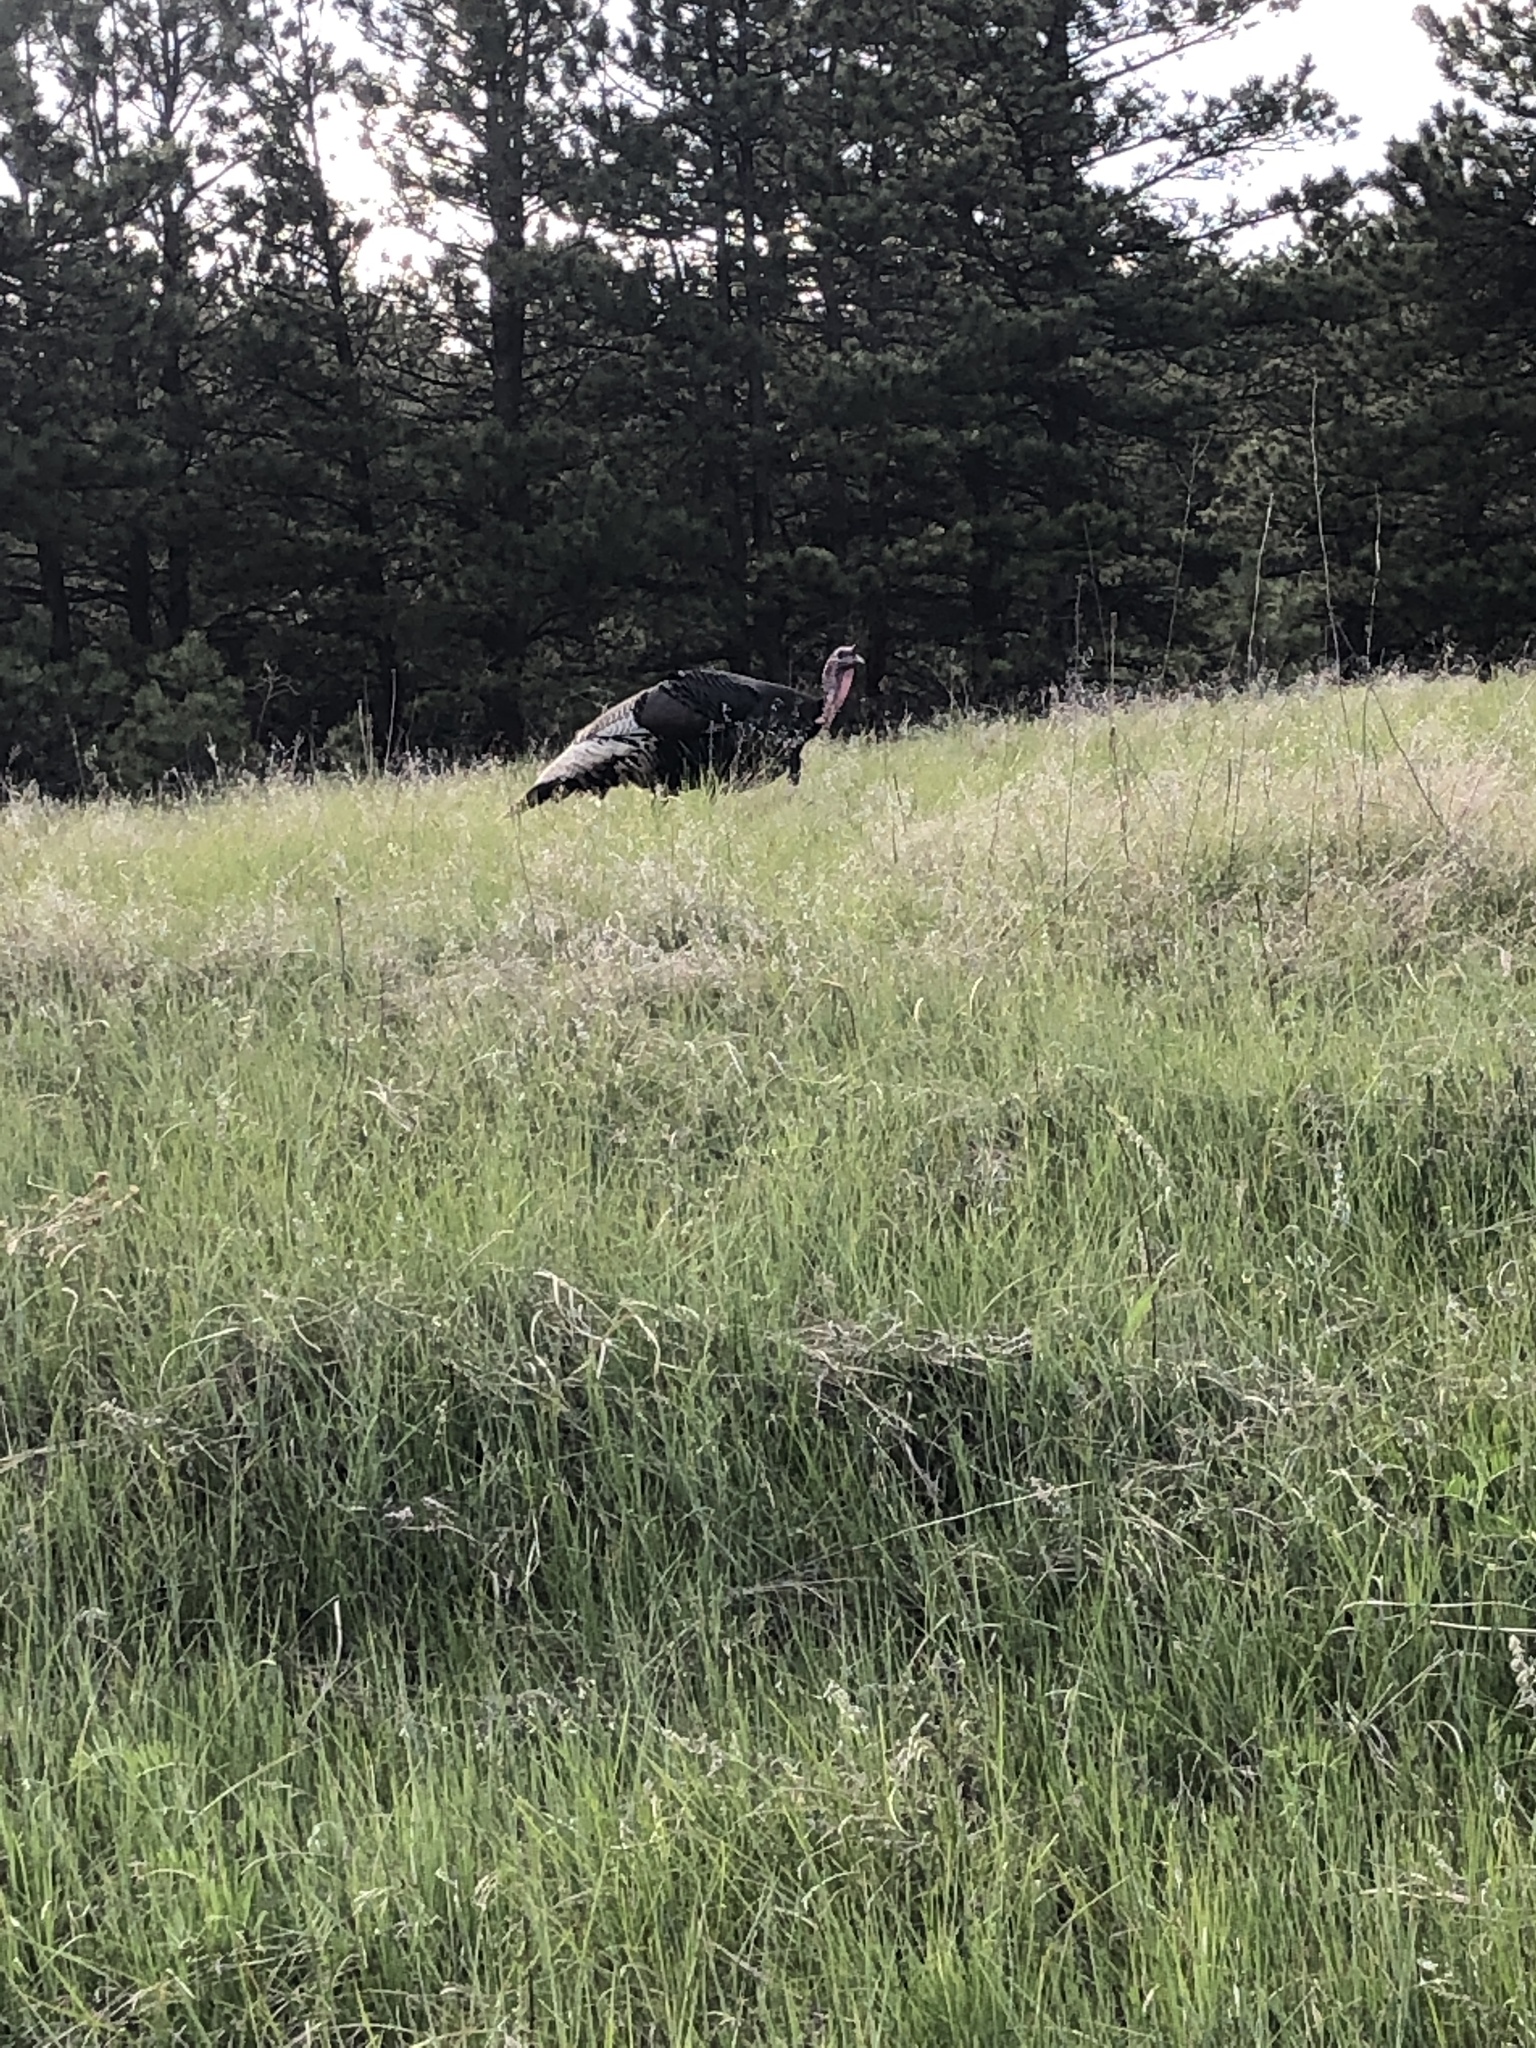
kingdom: Animalia
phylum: Chordata
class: Aves
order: Galliformes
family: Phasianidae
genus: Meleagris
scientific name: Meleagris gallopavo
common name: Wild turkey
